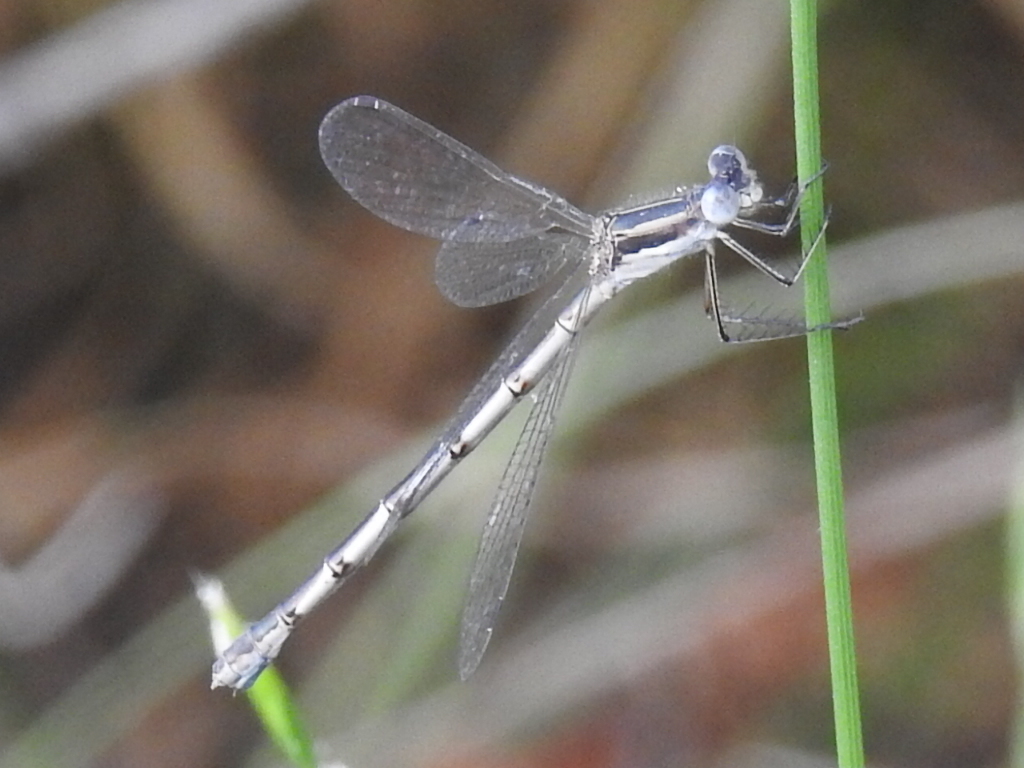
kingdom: Animalia
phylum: Arthropoda
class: Insecta
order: Odonata
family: Lestidae
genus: Lestes
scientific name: Lestes australis
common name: Southern spreadwing
